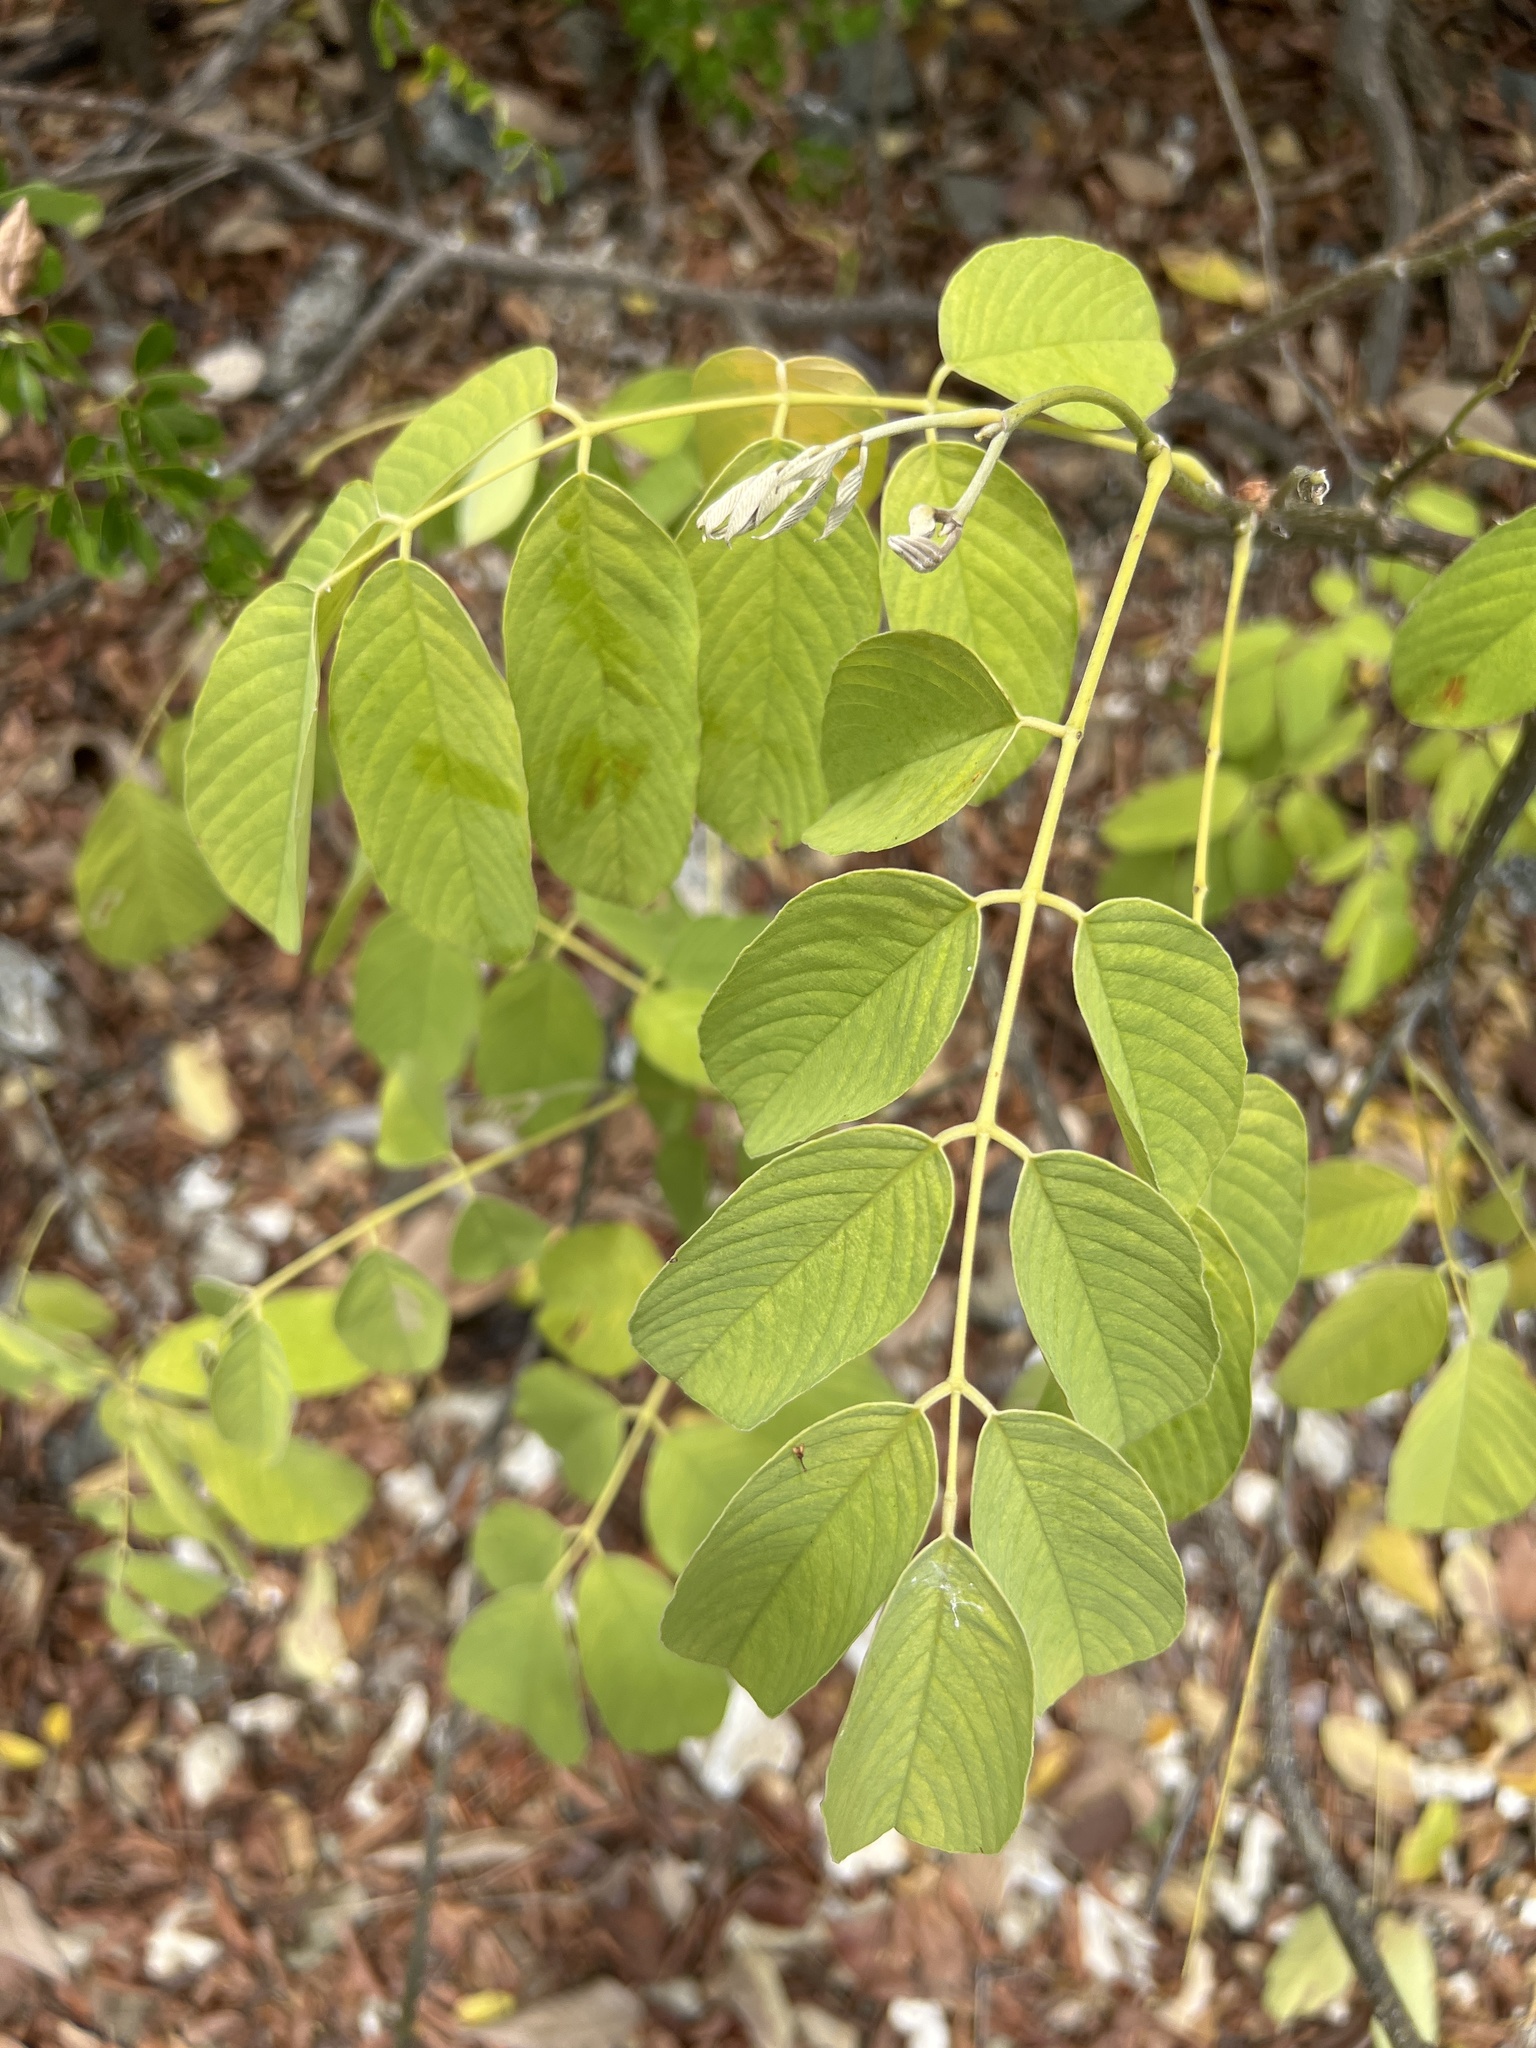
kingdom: Plantae
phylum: Tracheophyta
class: Magnoliopsida
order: Fabales
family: Fabaceae
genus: Piscidia
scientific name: Piscidia carthagenensis
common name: Stinkwood
